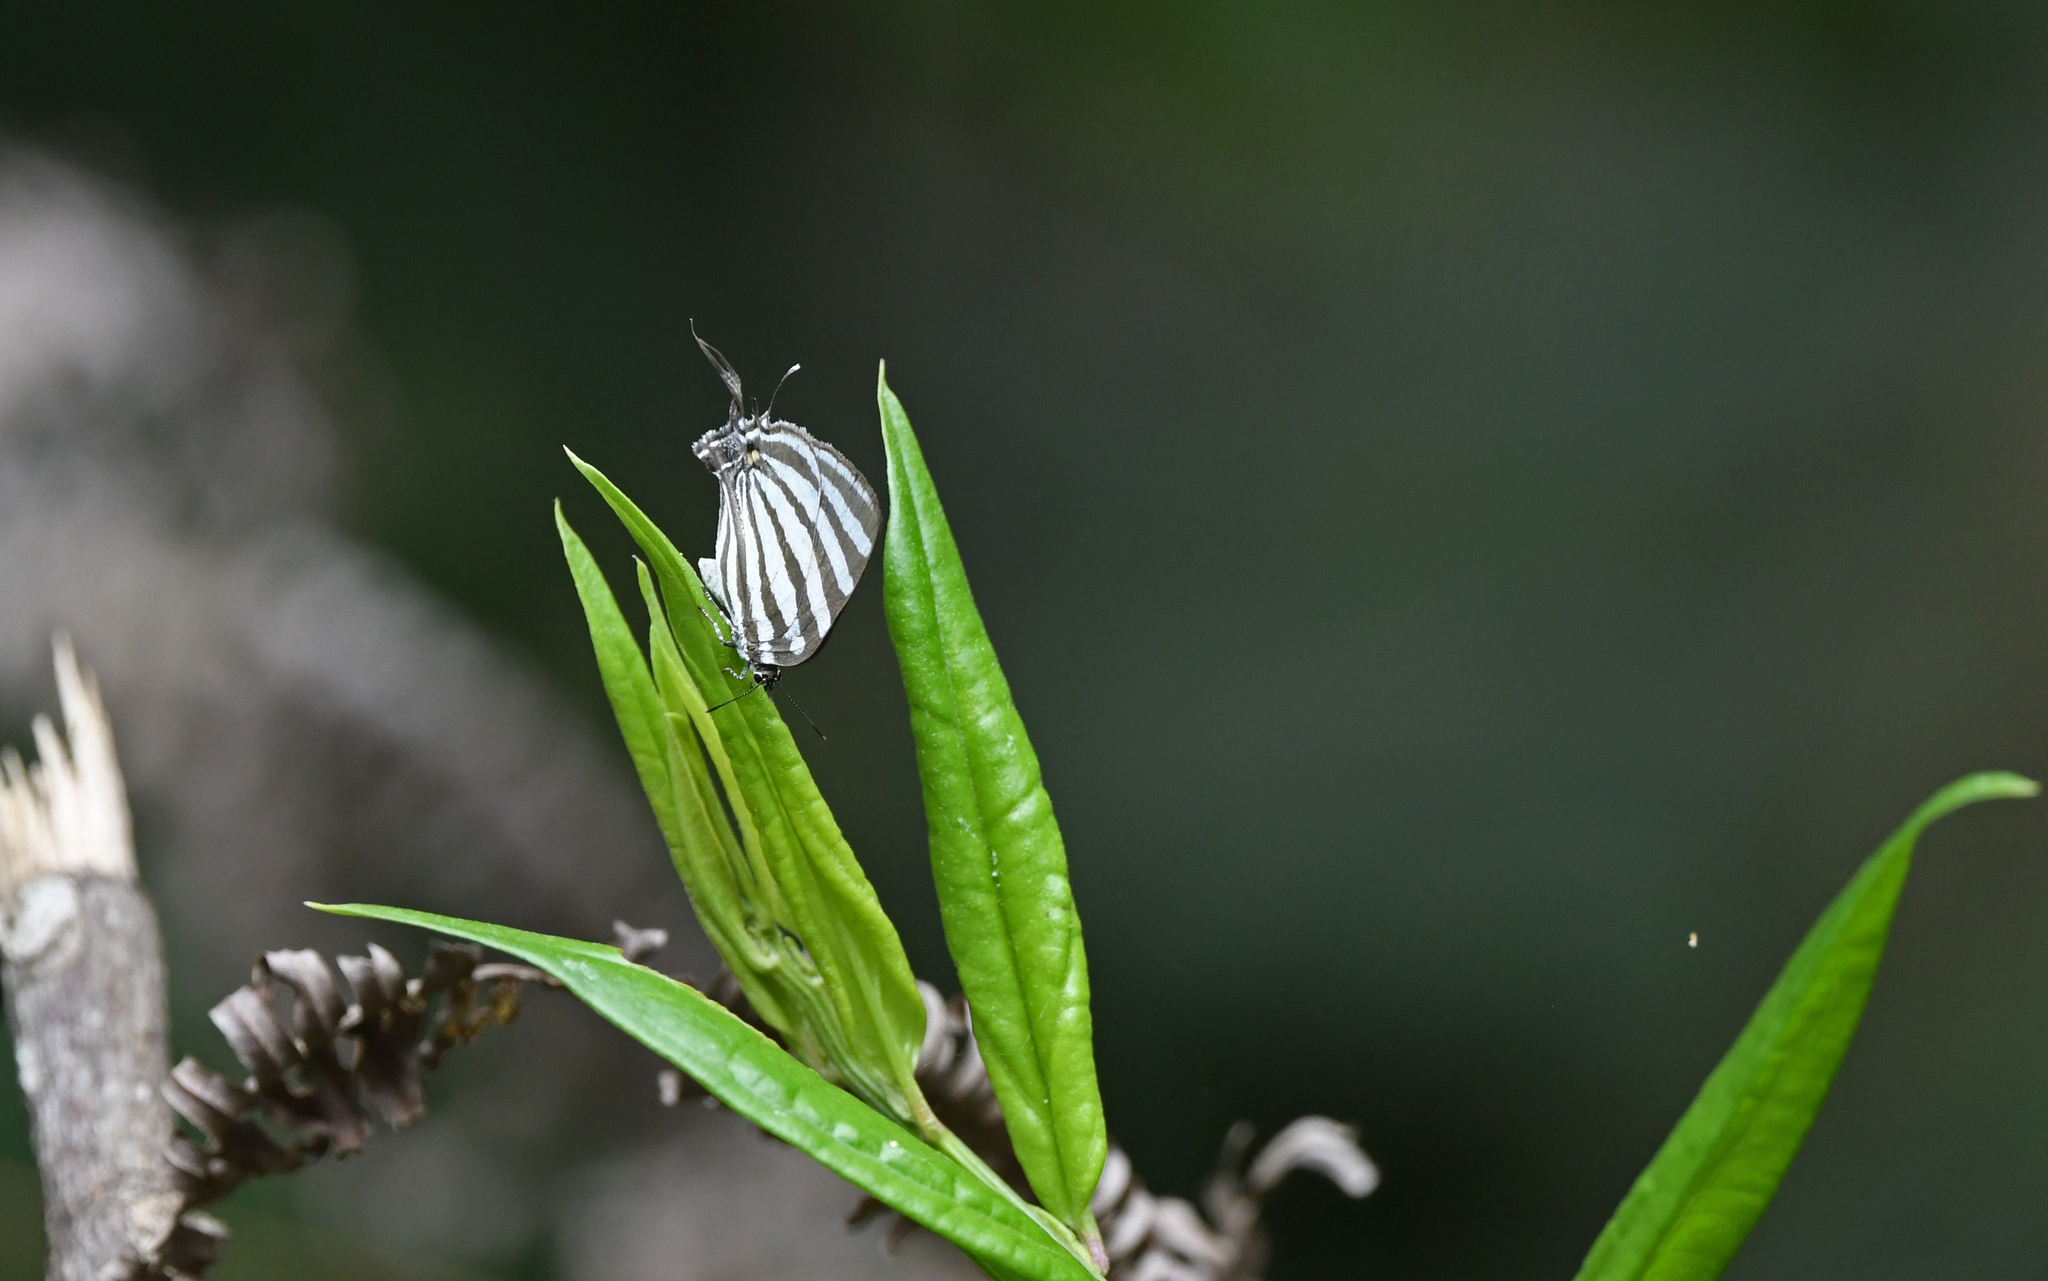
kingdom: Animalia
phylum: Arthropoda
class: Insecta
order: Lepidoptera
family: Lycaenidae
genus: Laothus
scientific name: Laothus gibberosa
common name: Great stripestreak
